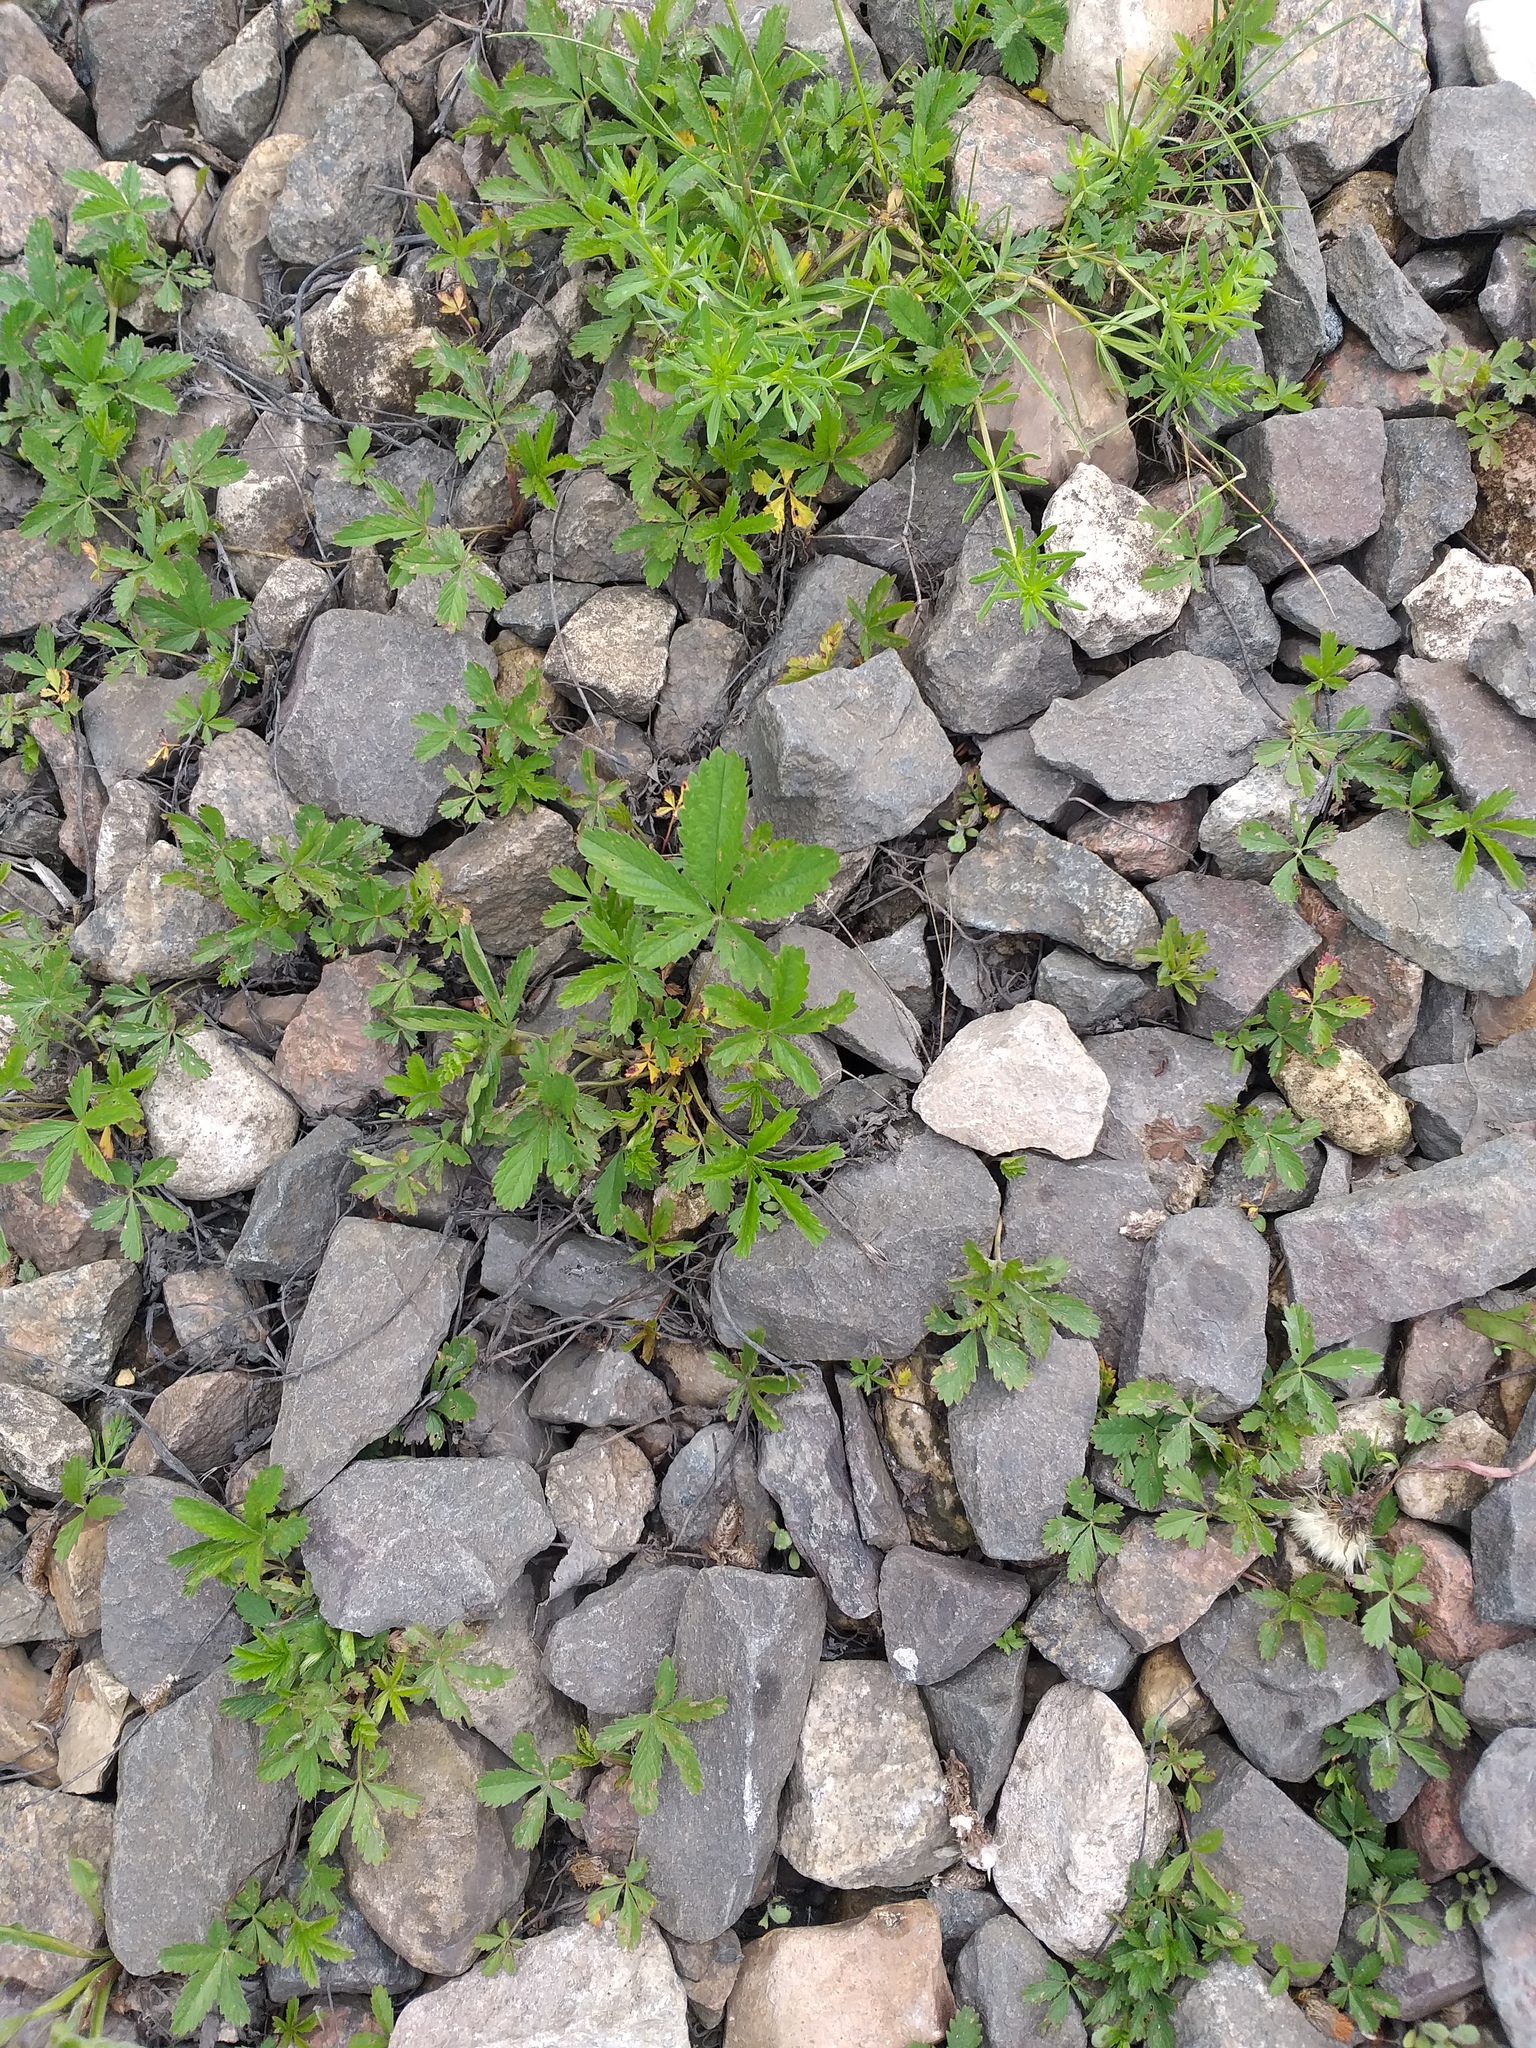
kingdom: Plantae
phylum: Tracheophyta
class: Magnoliopsida
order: Rosales
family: Rosaceae
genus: Potentilla
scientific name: Potentilla reptans
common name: Creeping cinquefoil
